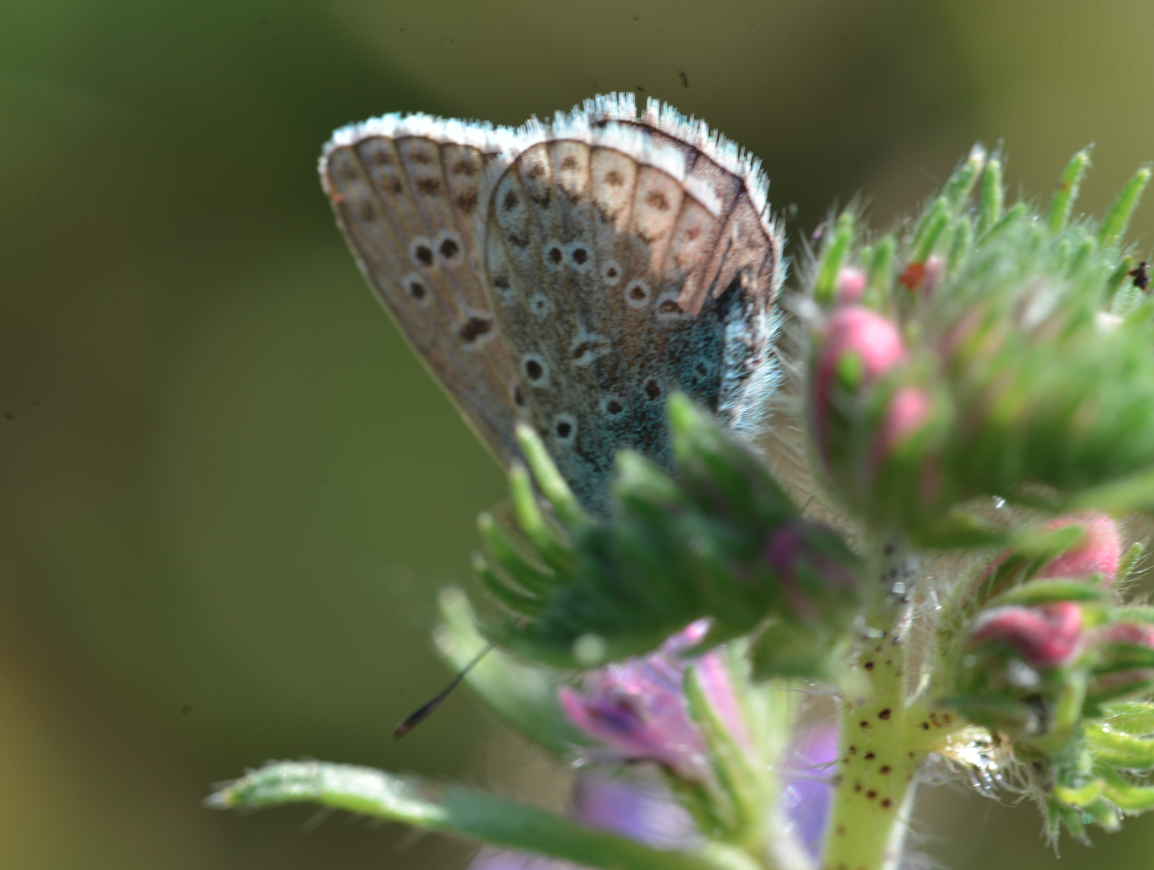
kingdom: Animalia
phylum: Arthropoda
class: Insecta
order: Lepidoptera
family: Lycaenidae
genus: Polyommatus
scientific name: Polyommatus icarus
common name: Common blue
